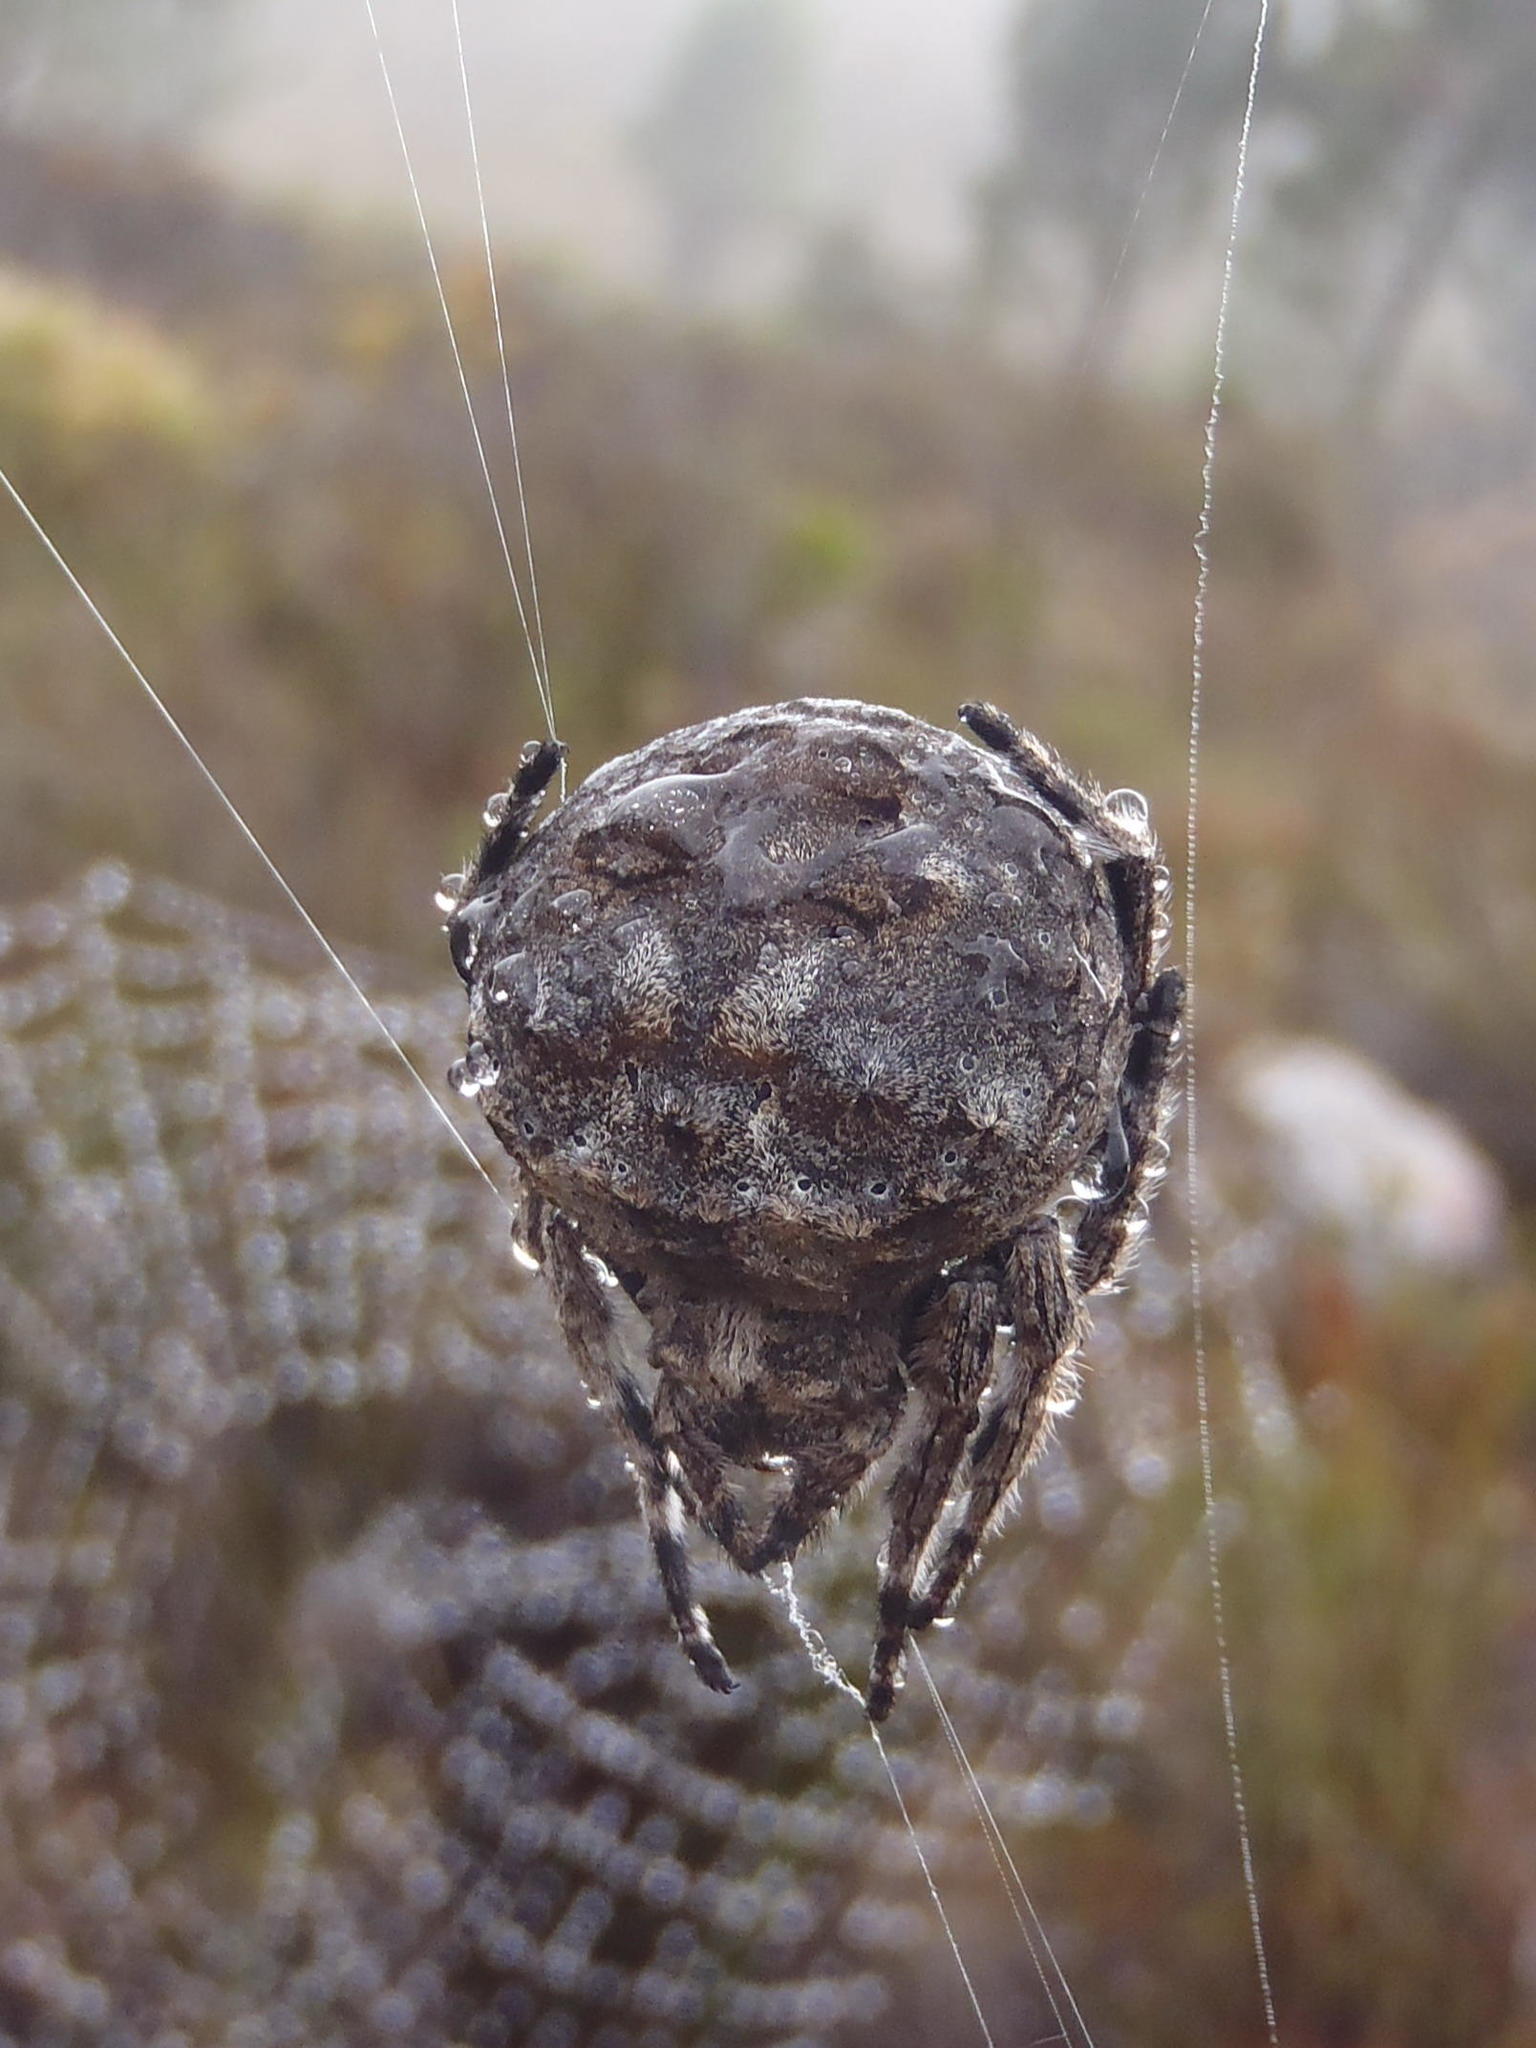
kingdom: Animalia
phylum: Arthropoda
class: Arachnida
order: Araneae
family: Araneidae
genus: Caerostris
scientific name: Caerostris corticosa
